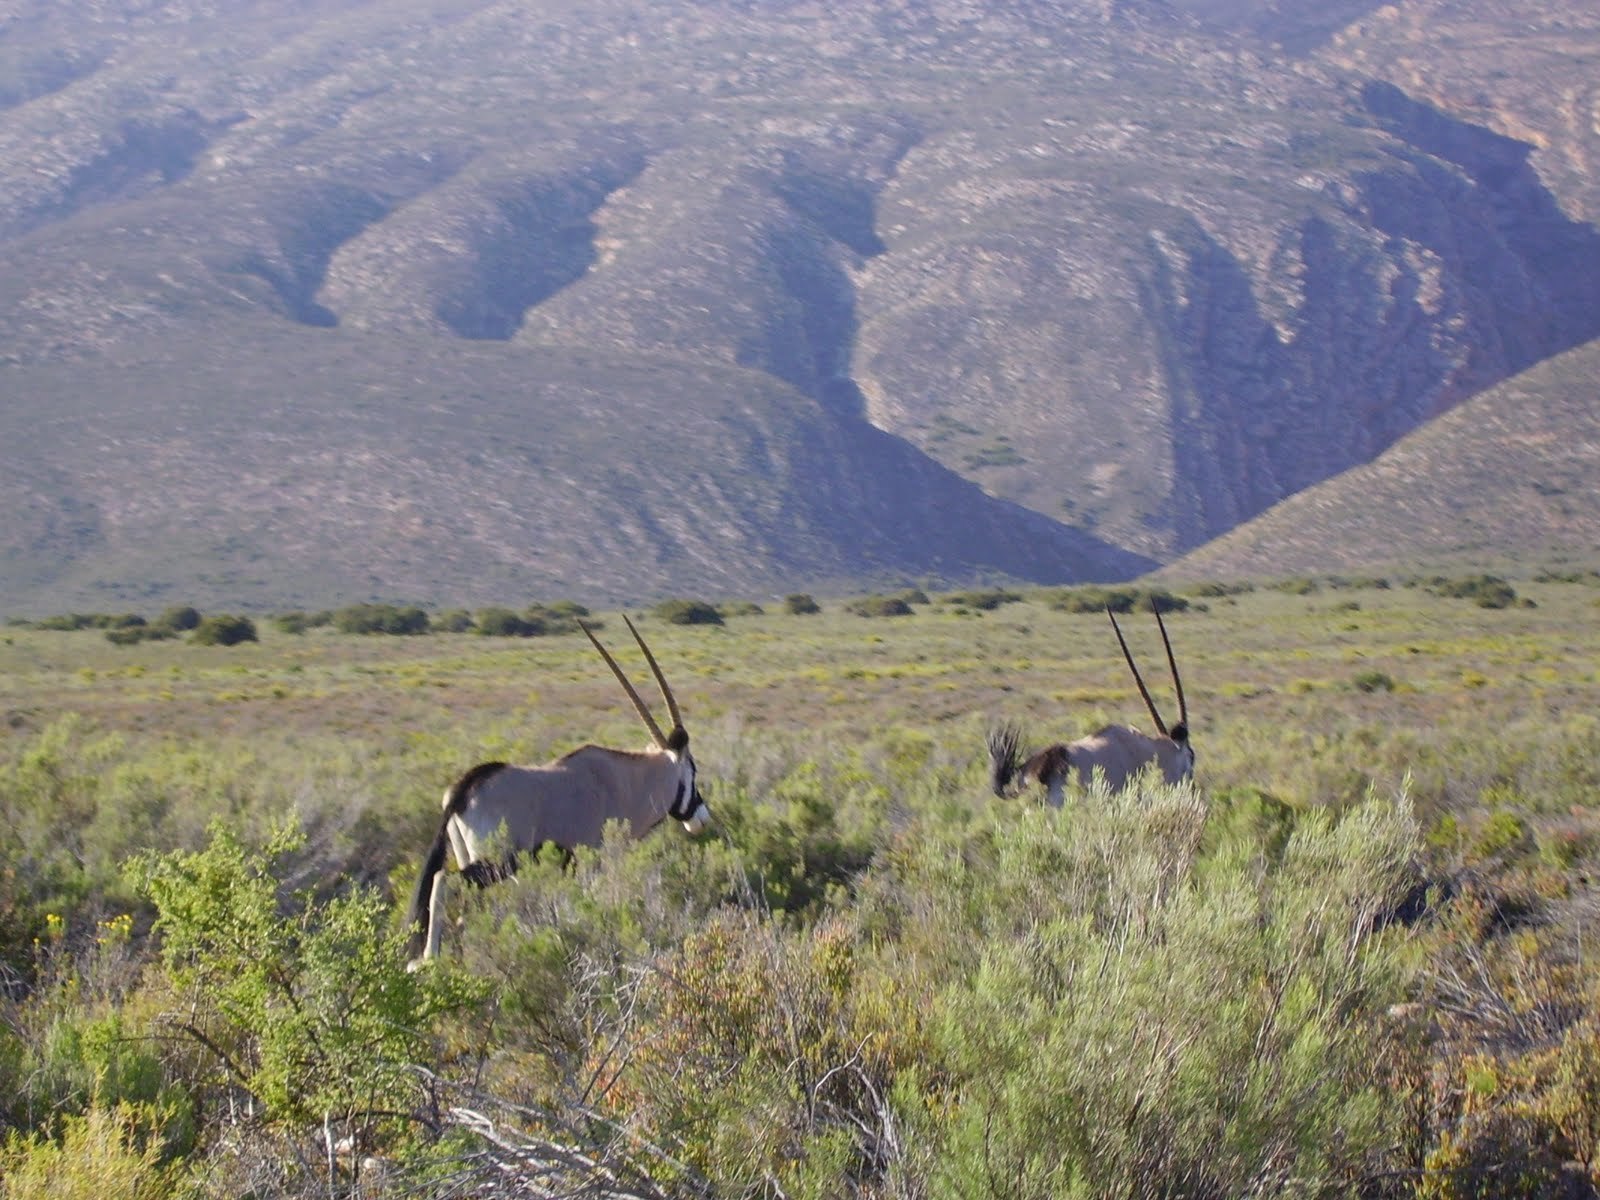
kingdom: Animalia
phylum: Chordata
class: Mammalia
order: Artiodactyla
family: Bovidae
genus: Oryx
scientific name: Oryx gazella
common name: Gemsbok
